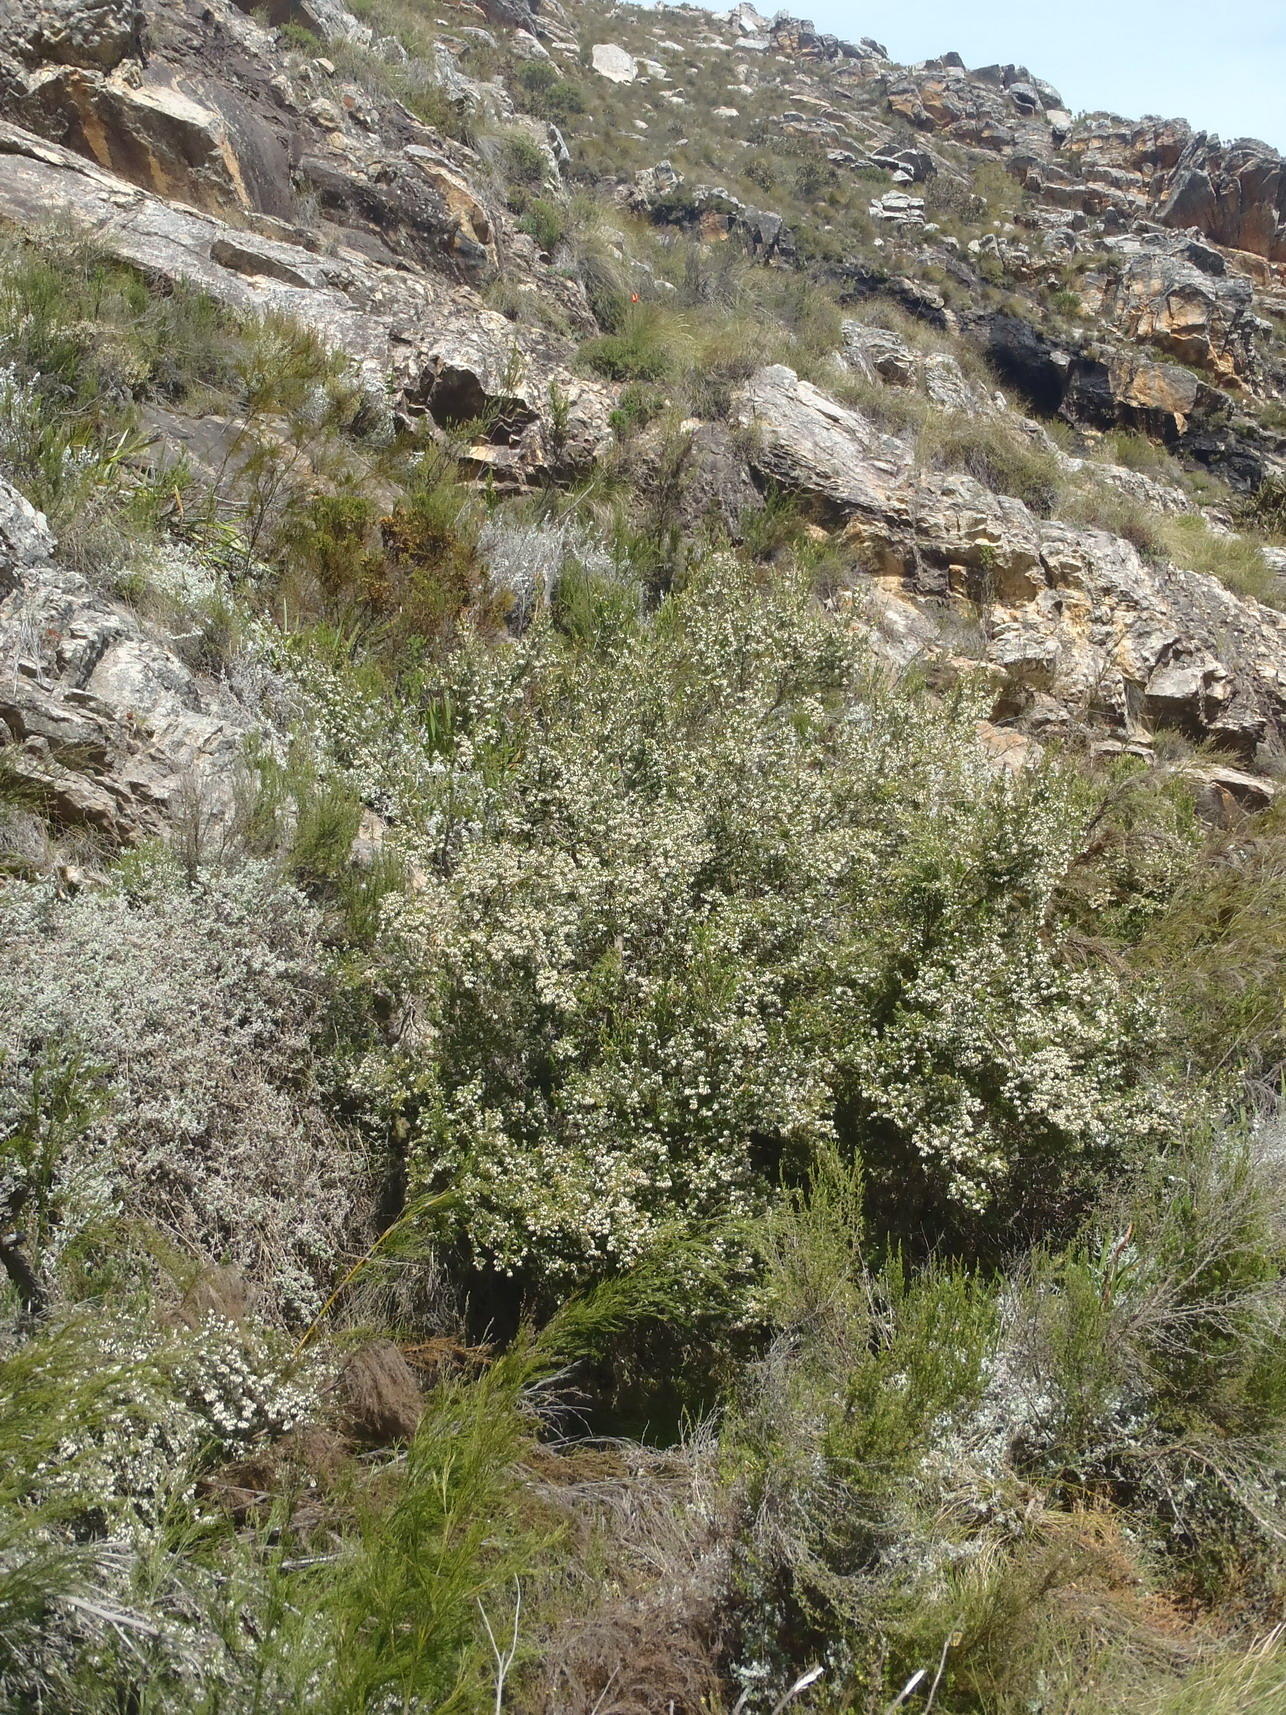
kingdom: Plantae
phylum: Tracheophyta
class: Magnoliopsida
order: Ericales
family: Ericaceae
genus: Erica
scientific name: Erica caffra
